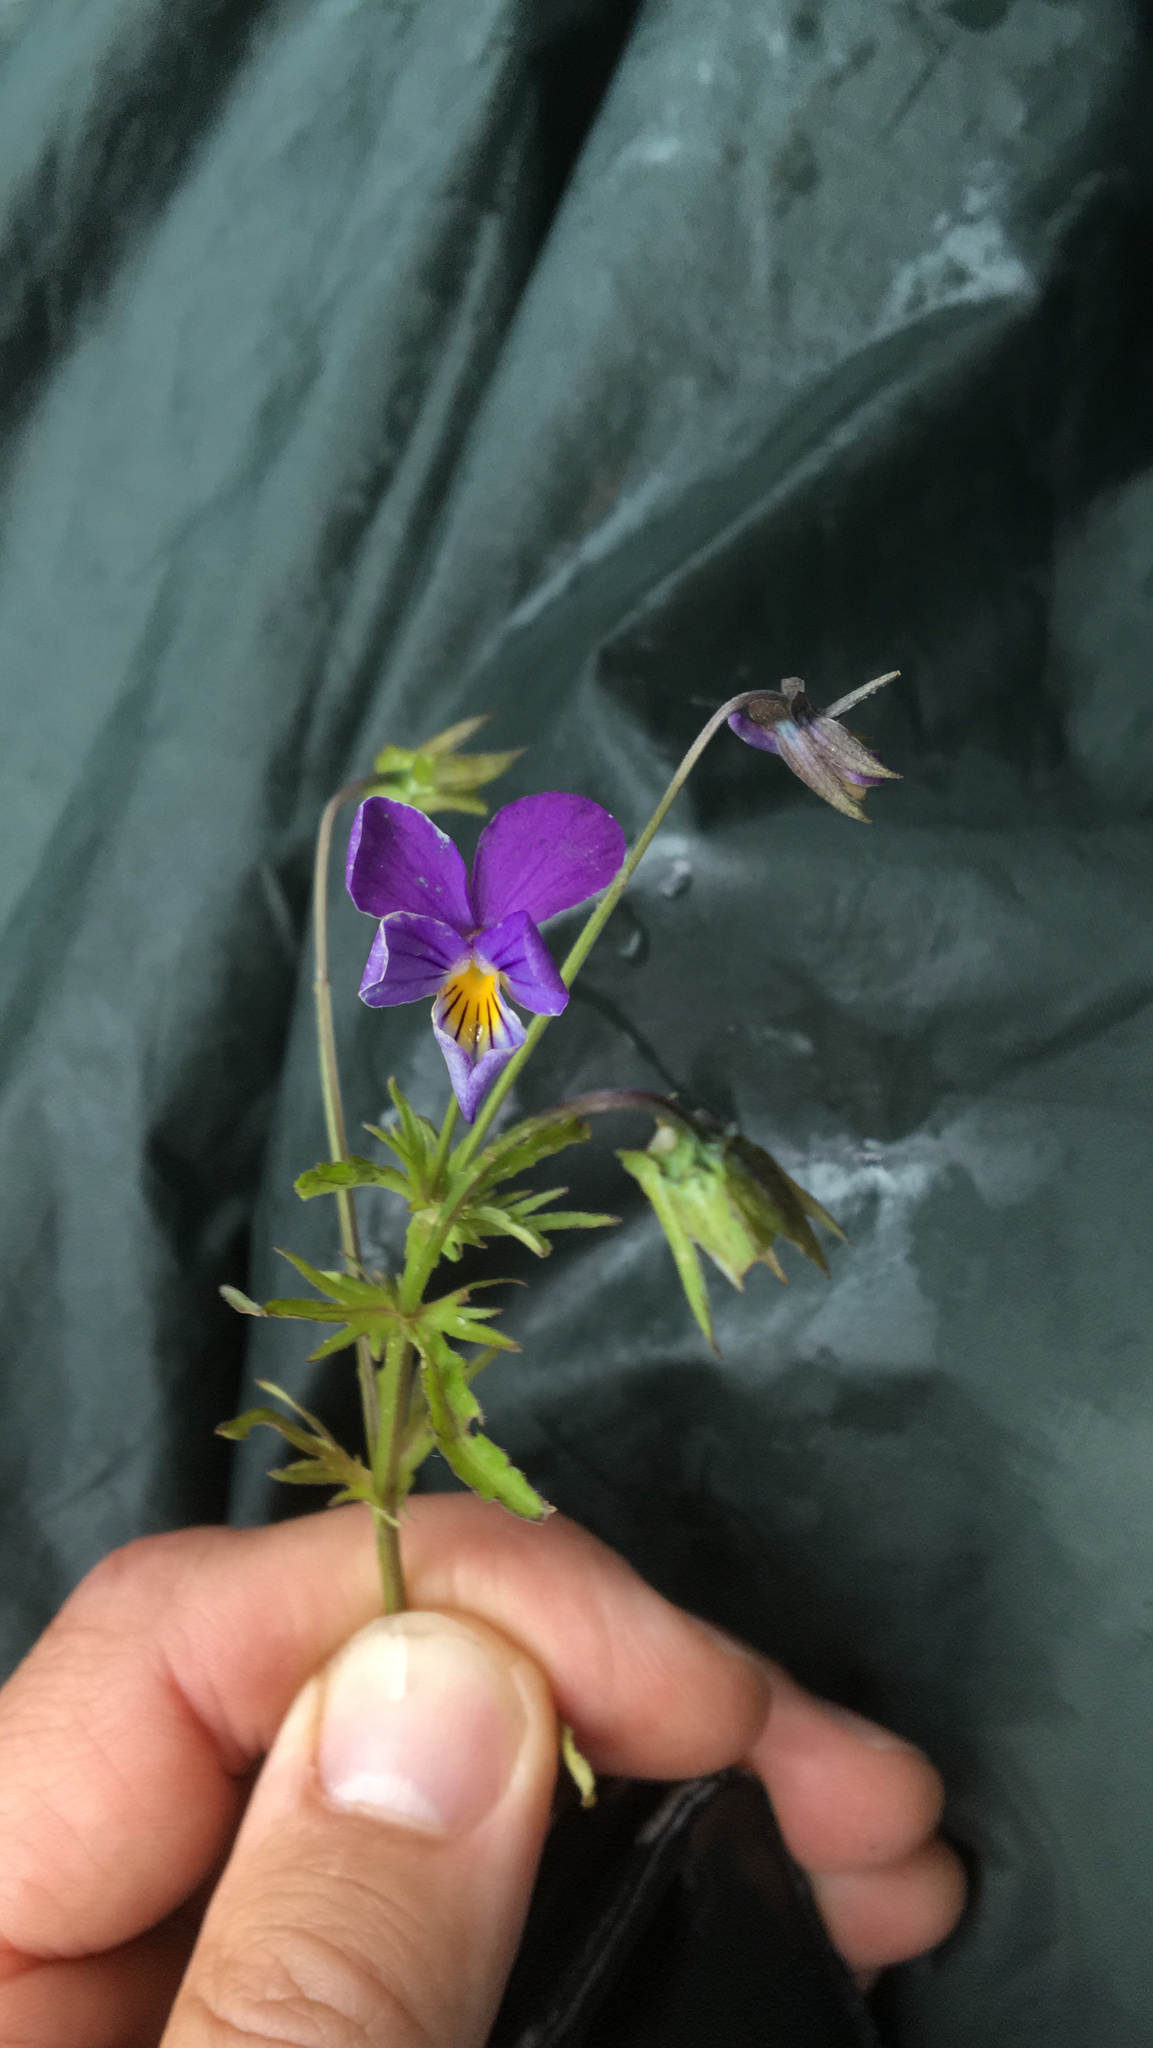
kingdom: Plantae
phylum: Tracheophyta
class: Magnoliopsida
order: Malpighiales
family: Violaceae
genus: Viola
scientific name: Viola tricolor
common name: Pansy
